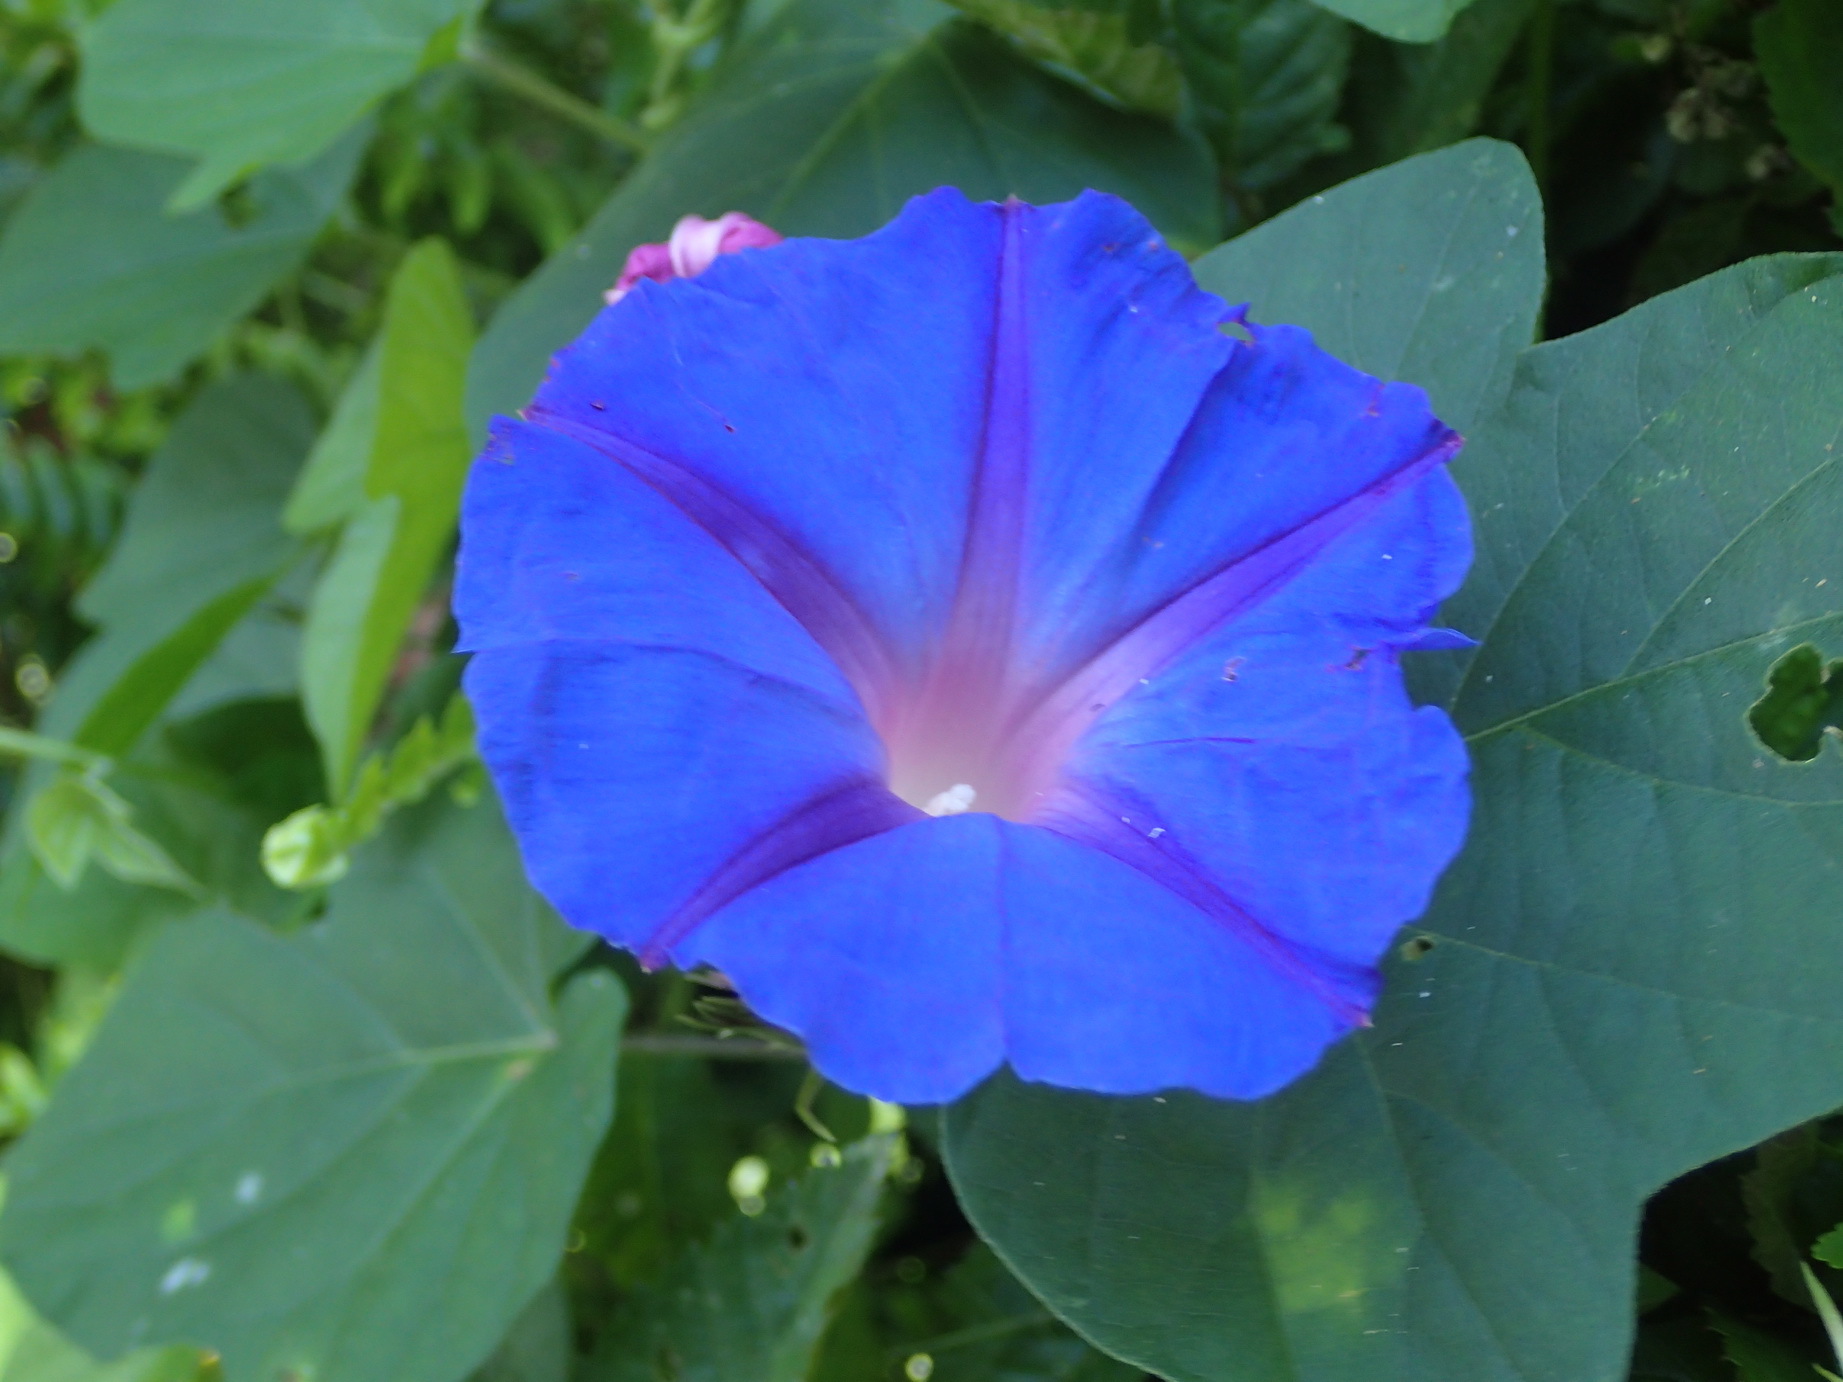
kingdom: Plantae
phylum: Tracheophyta
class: Magnoliopsida
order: Solanales
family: Convolvulaceae
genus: Ipomoea
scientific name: Ipomoea indica
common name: Blue dawnflower
